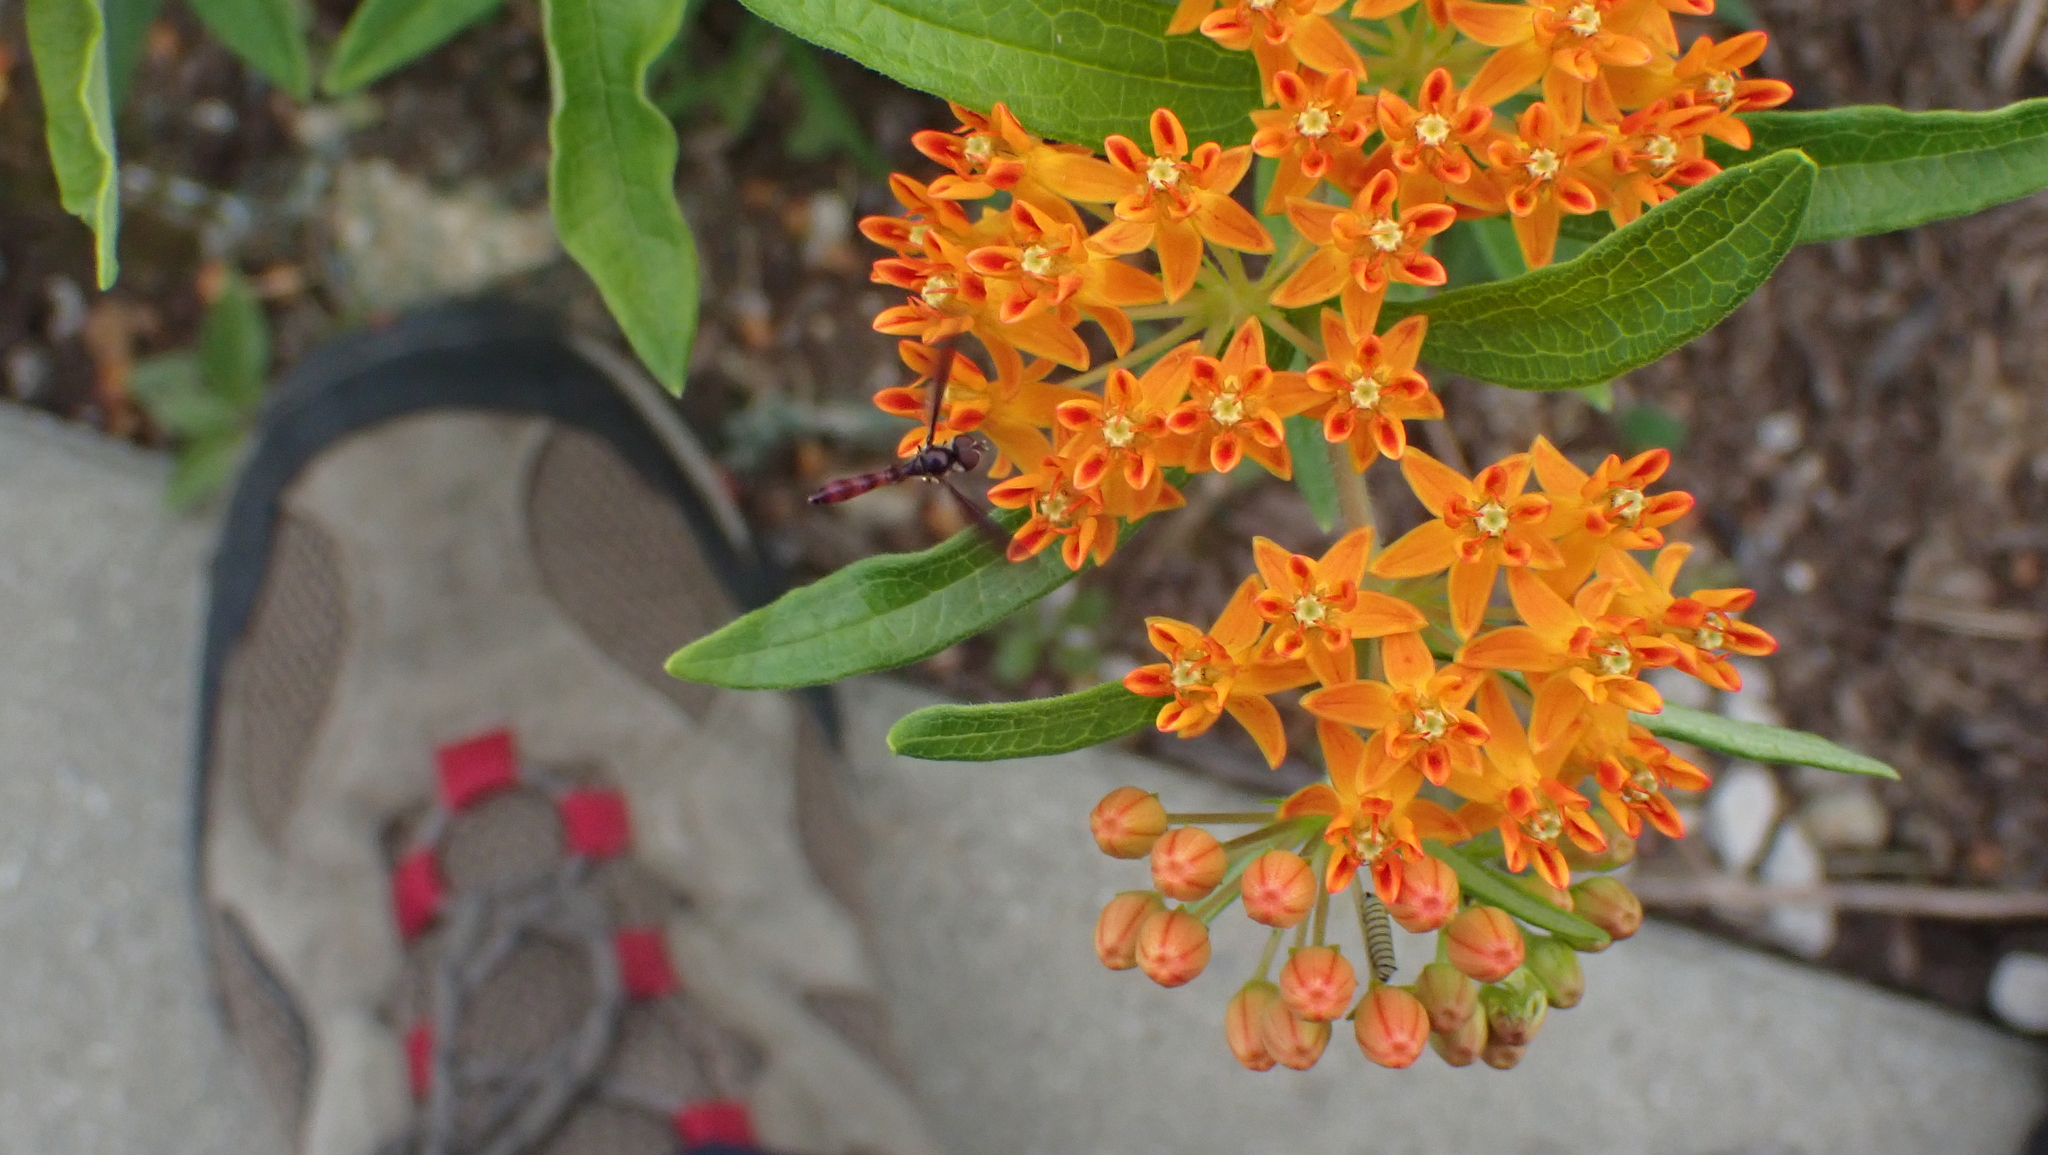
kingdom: Animalia
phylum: Arthropoda
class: Insecta
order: Diptera
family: Syrphidae
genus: Ocyptamus
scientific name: Ocyptamus fuscipennis
